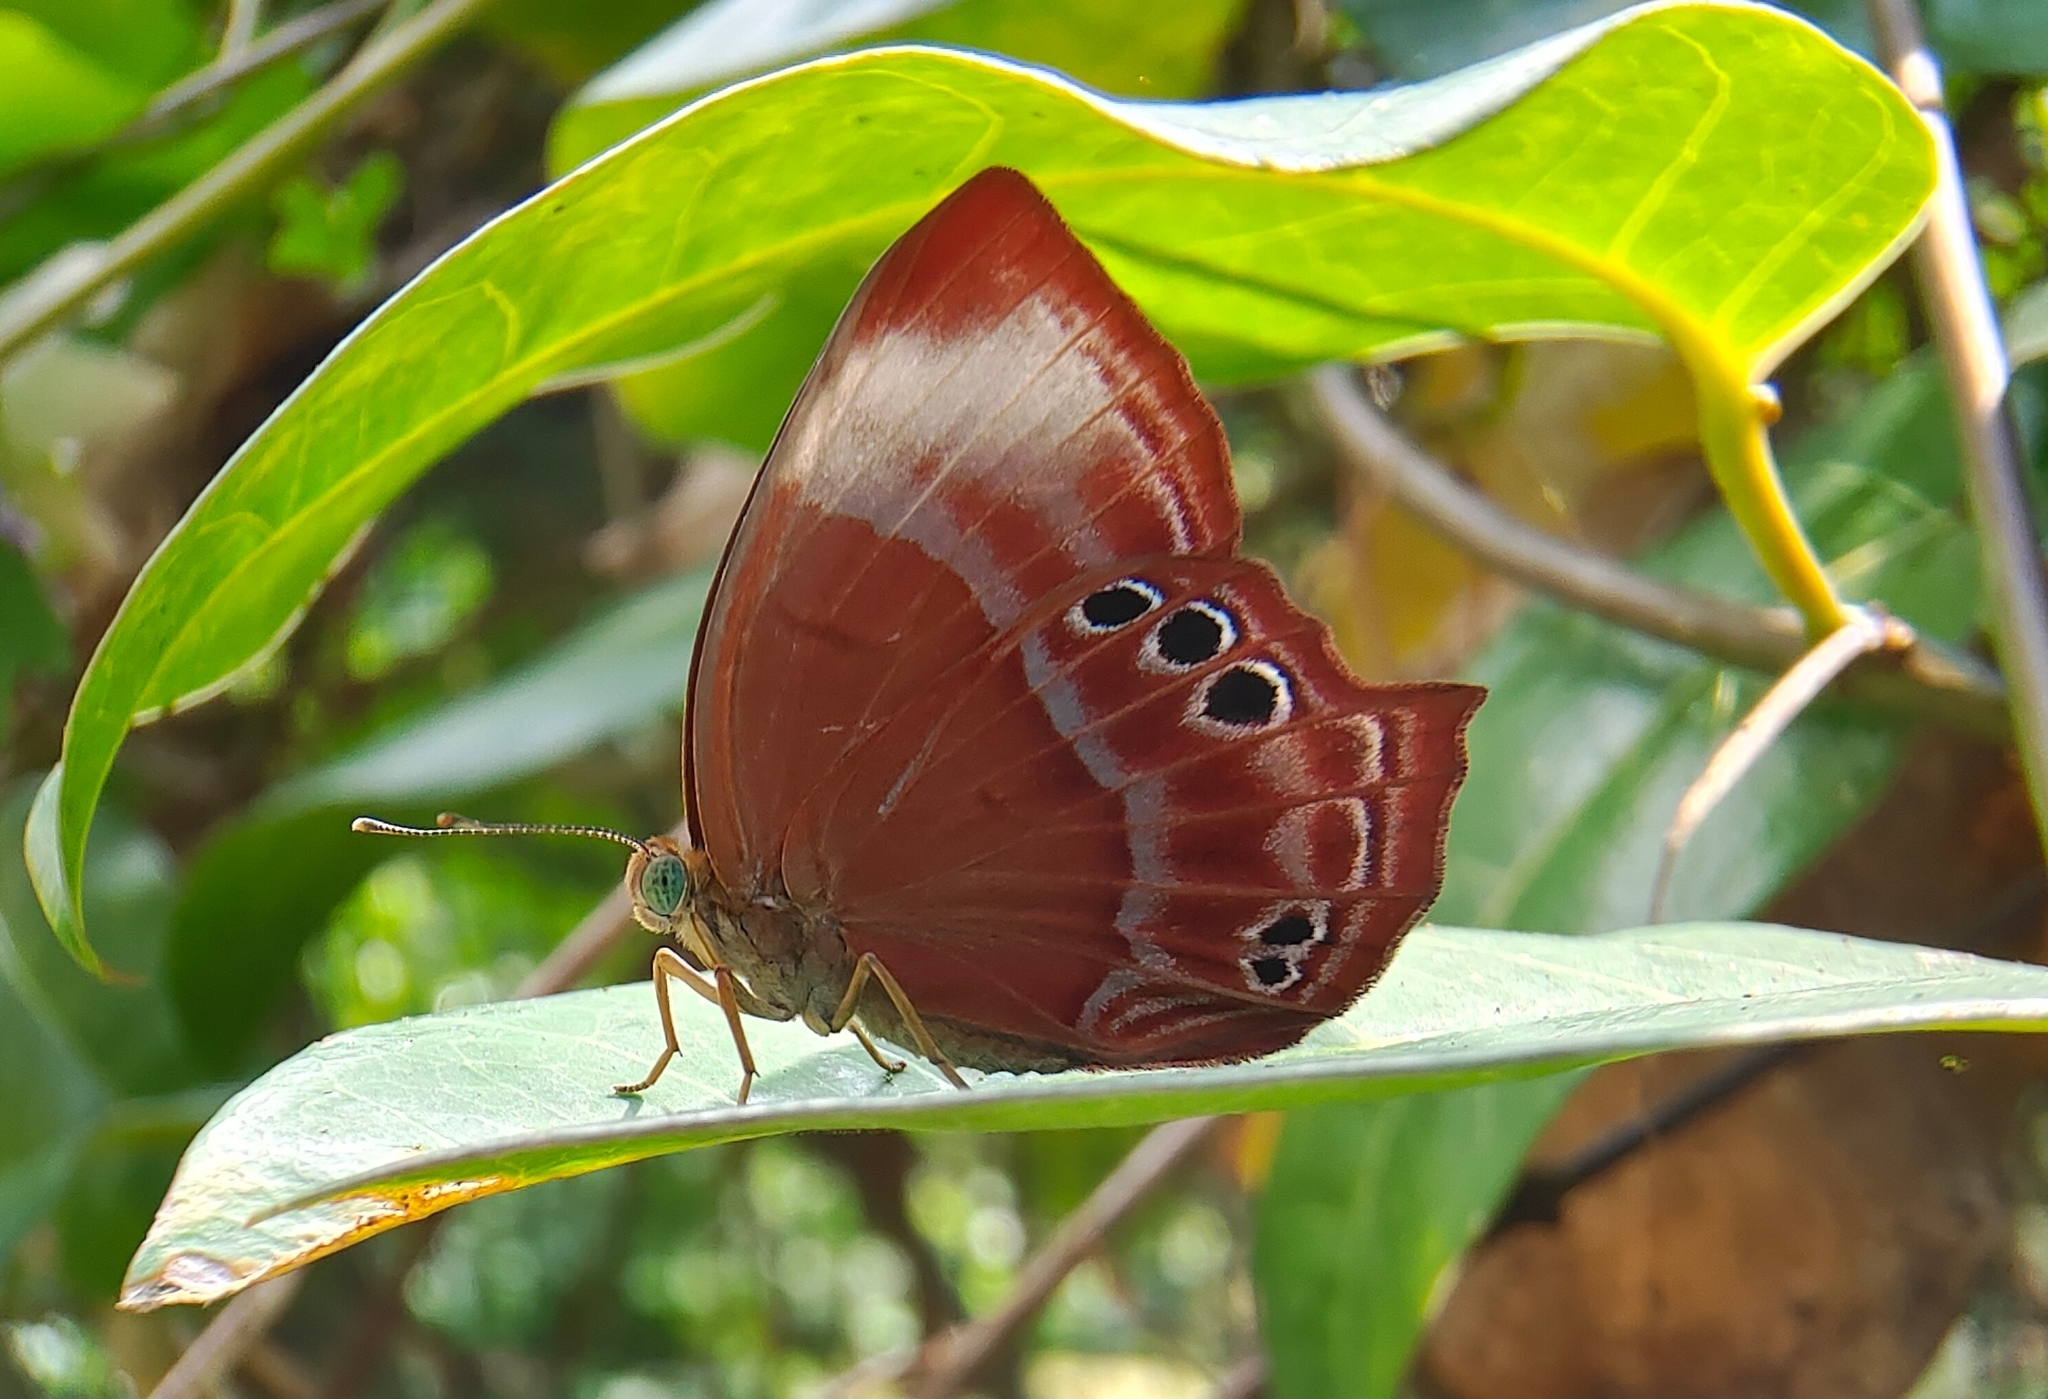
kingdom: Animalia
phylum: Arthropoda
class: Insecta
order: Lepidoptera
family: Lycaenidae
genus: Abisara
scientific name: Abisara saturata
